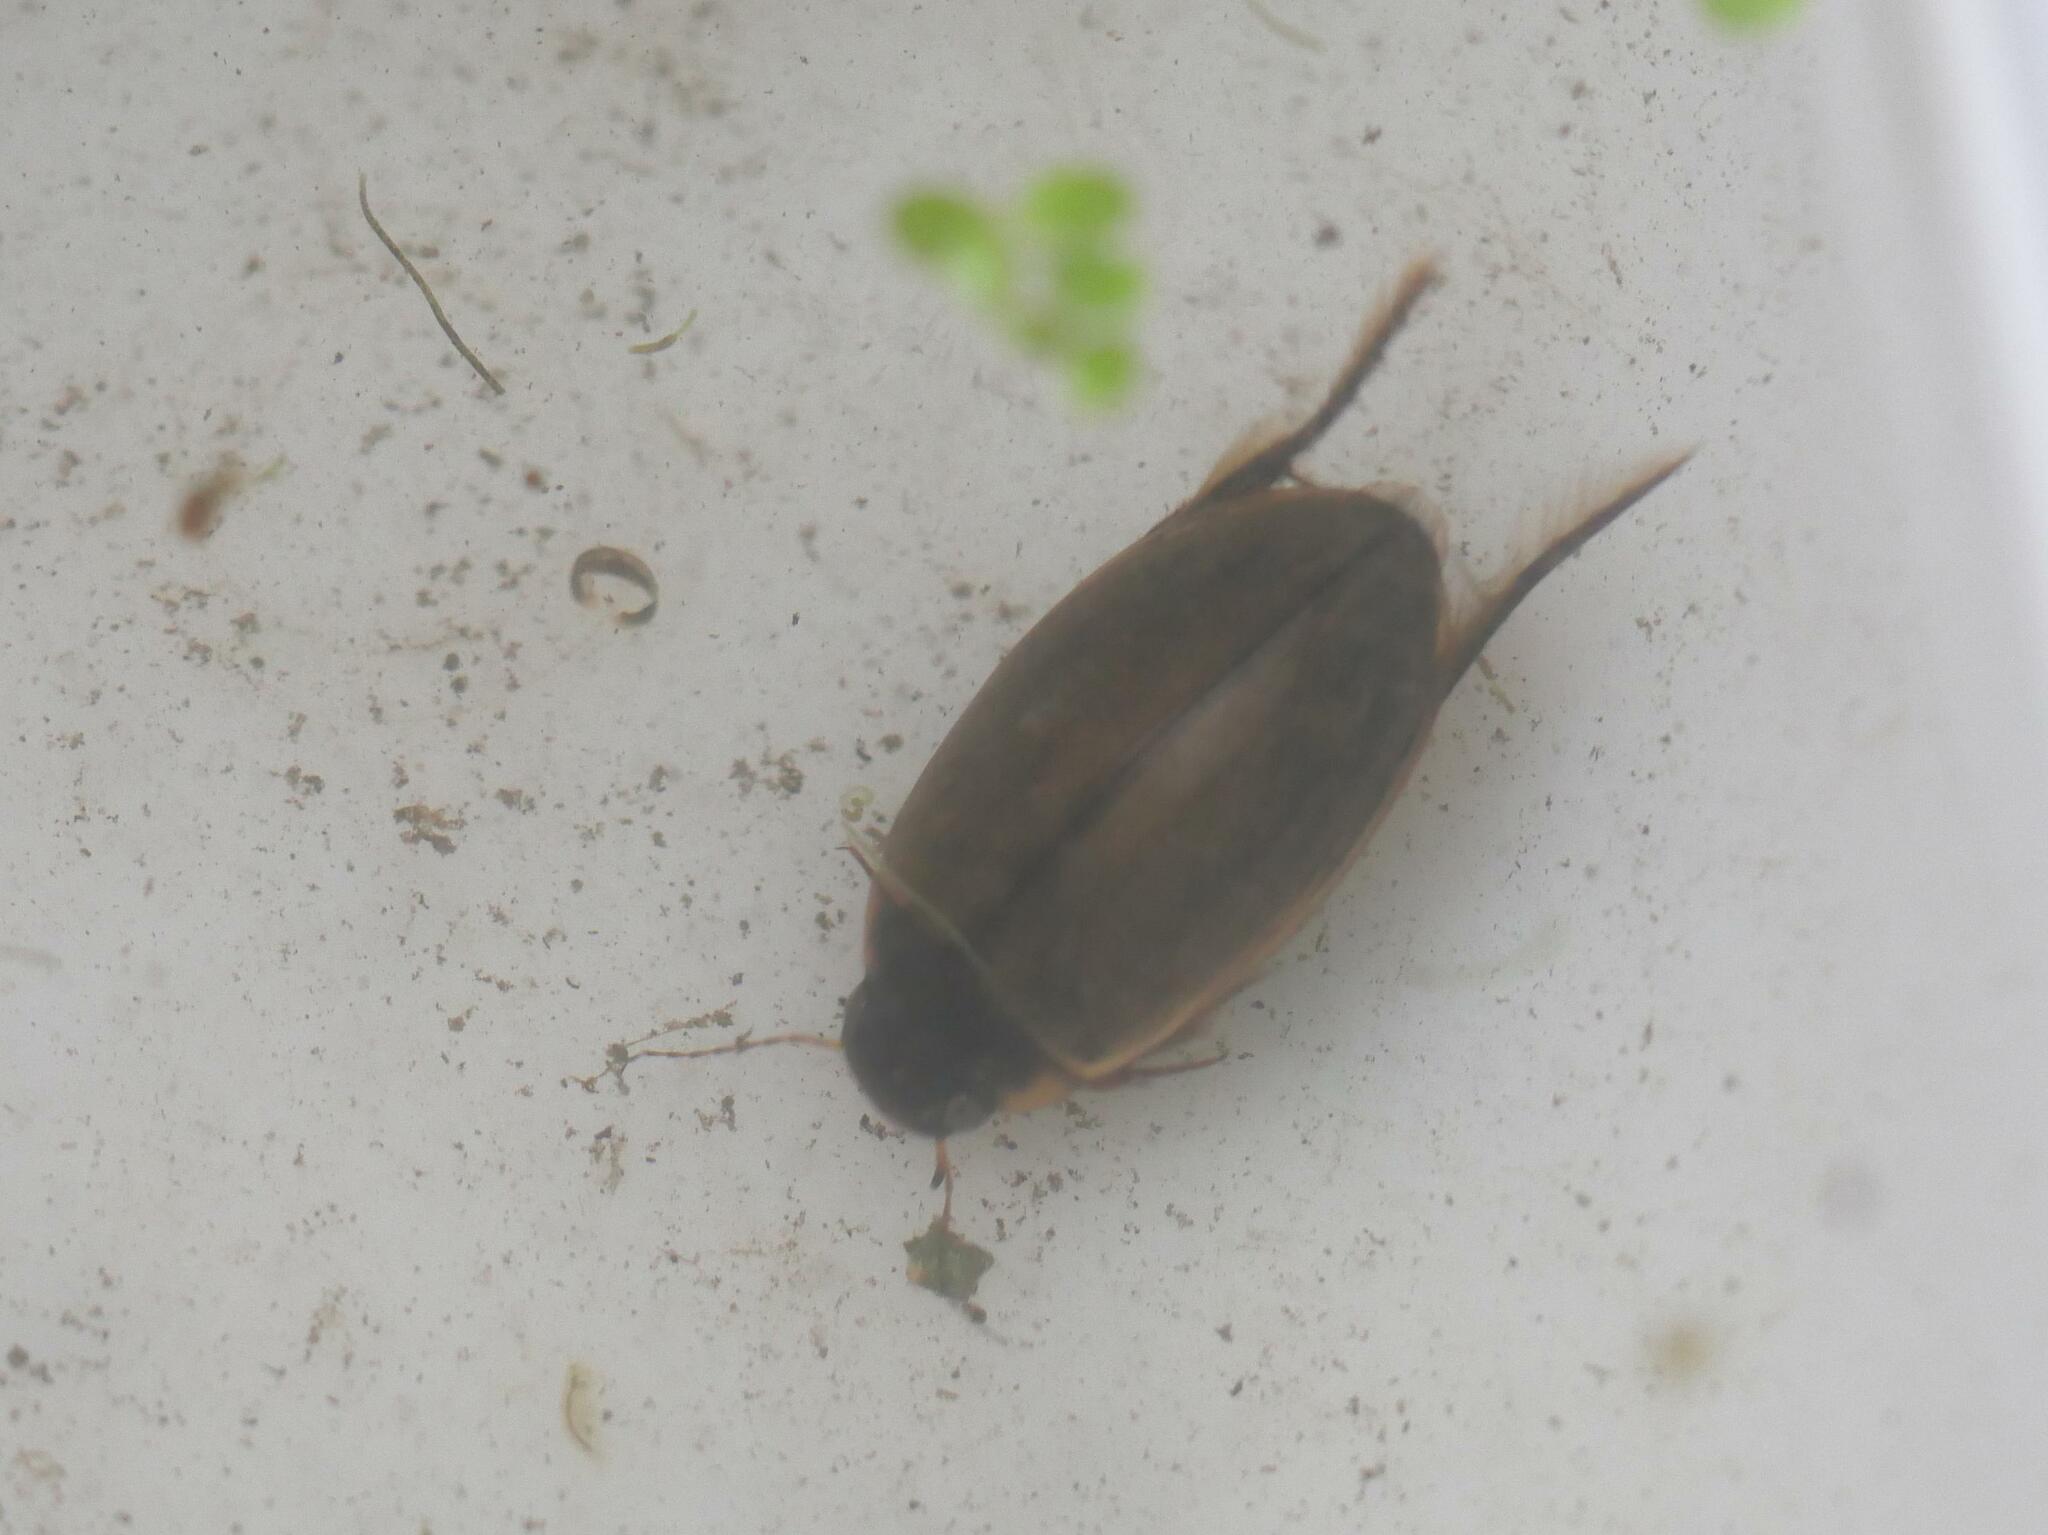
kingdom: Animalia
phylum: Arthropoda
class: Insecta
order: Coleoptera
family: Dytiscidae
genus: Colymbetes
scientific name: Colymbetes fuscus
